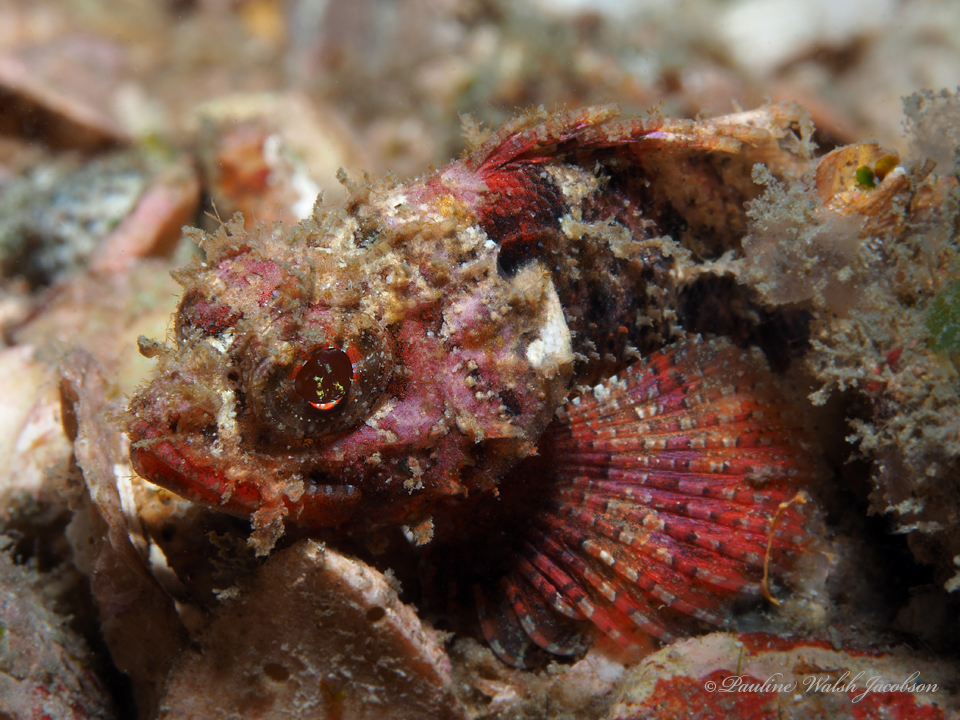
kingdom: Animalia
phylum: Chordata
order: Scorpaeniformes
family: Scorpaenidae
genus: Scorpaena
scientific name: Scorpaena brasiliensis
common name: Barbfish
